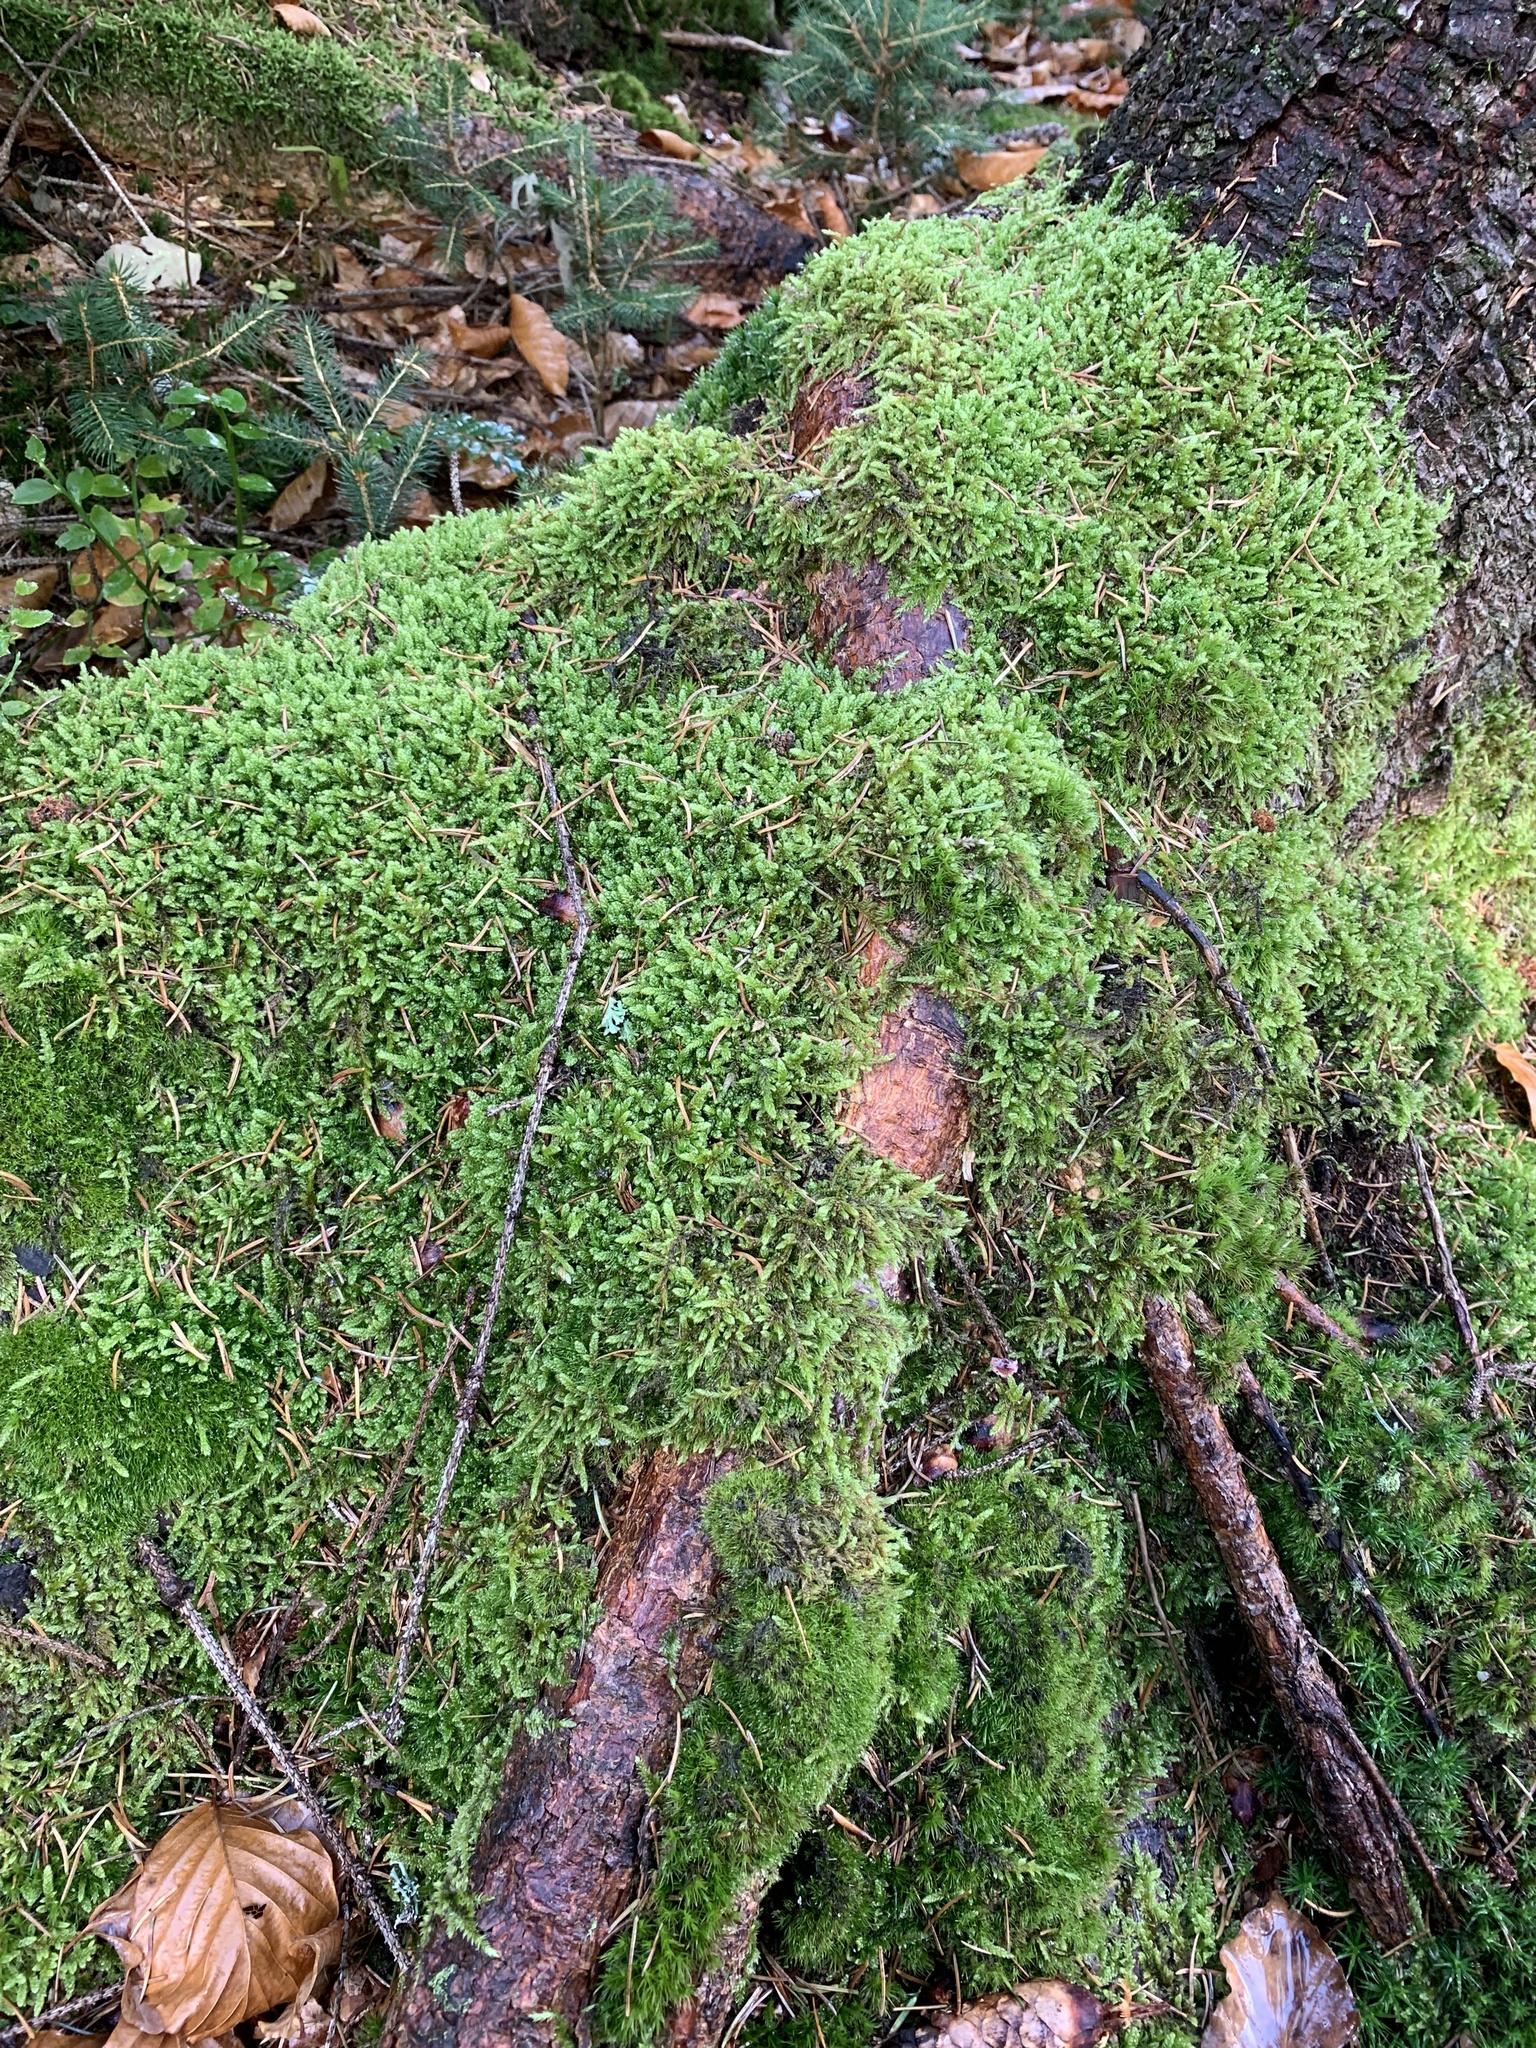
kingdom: Plantae
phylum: Bryophyta
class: Bryopsida
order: Hypnales
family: Hypnaceae
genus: Hypnum
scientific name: Hypnum cupressiforme
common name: Cypress-leaved plait-moss
